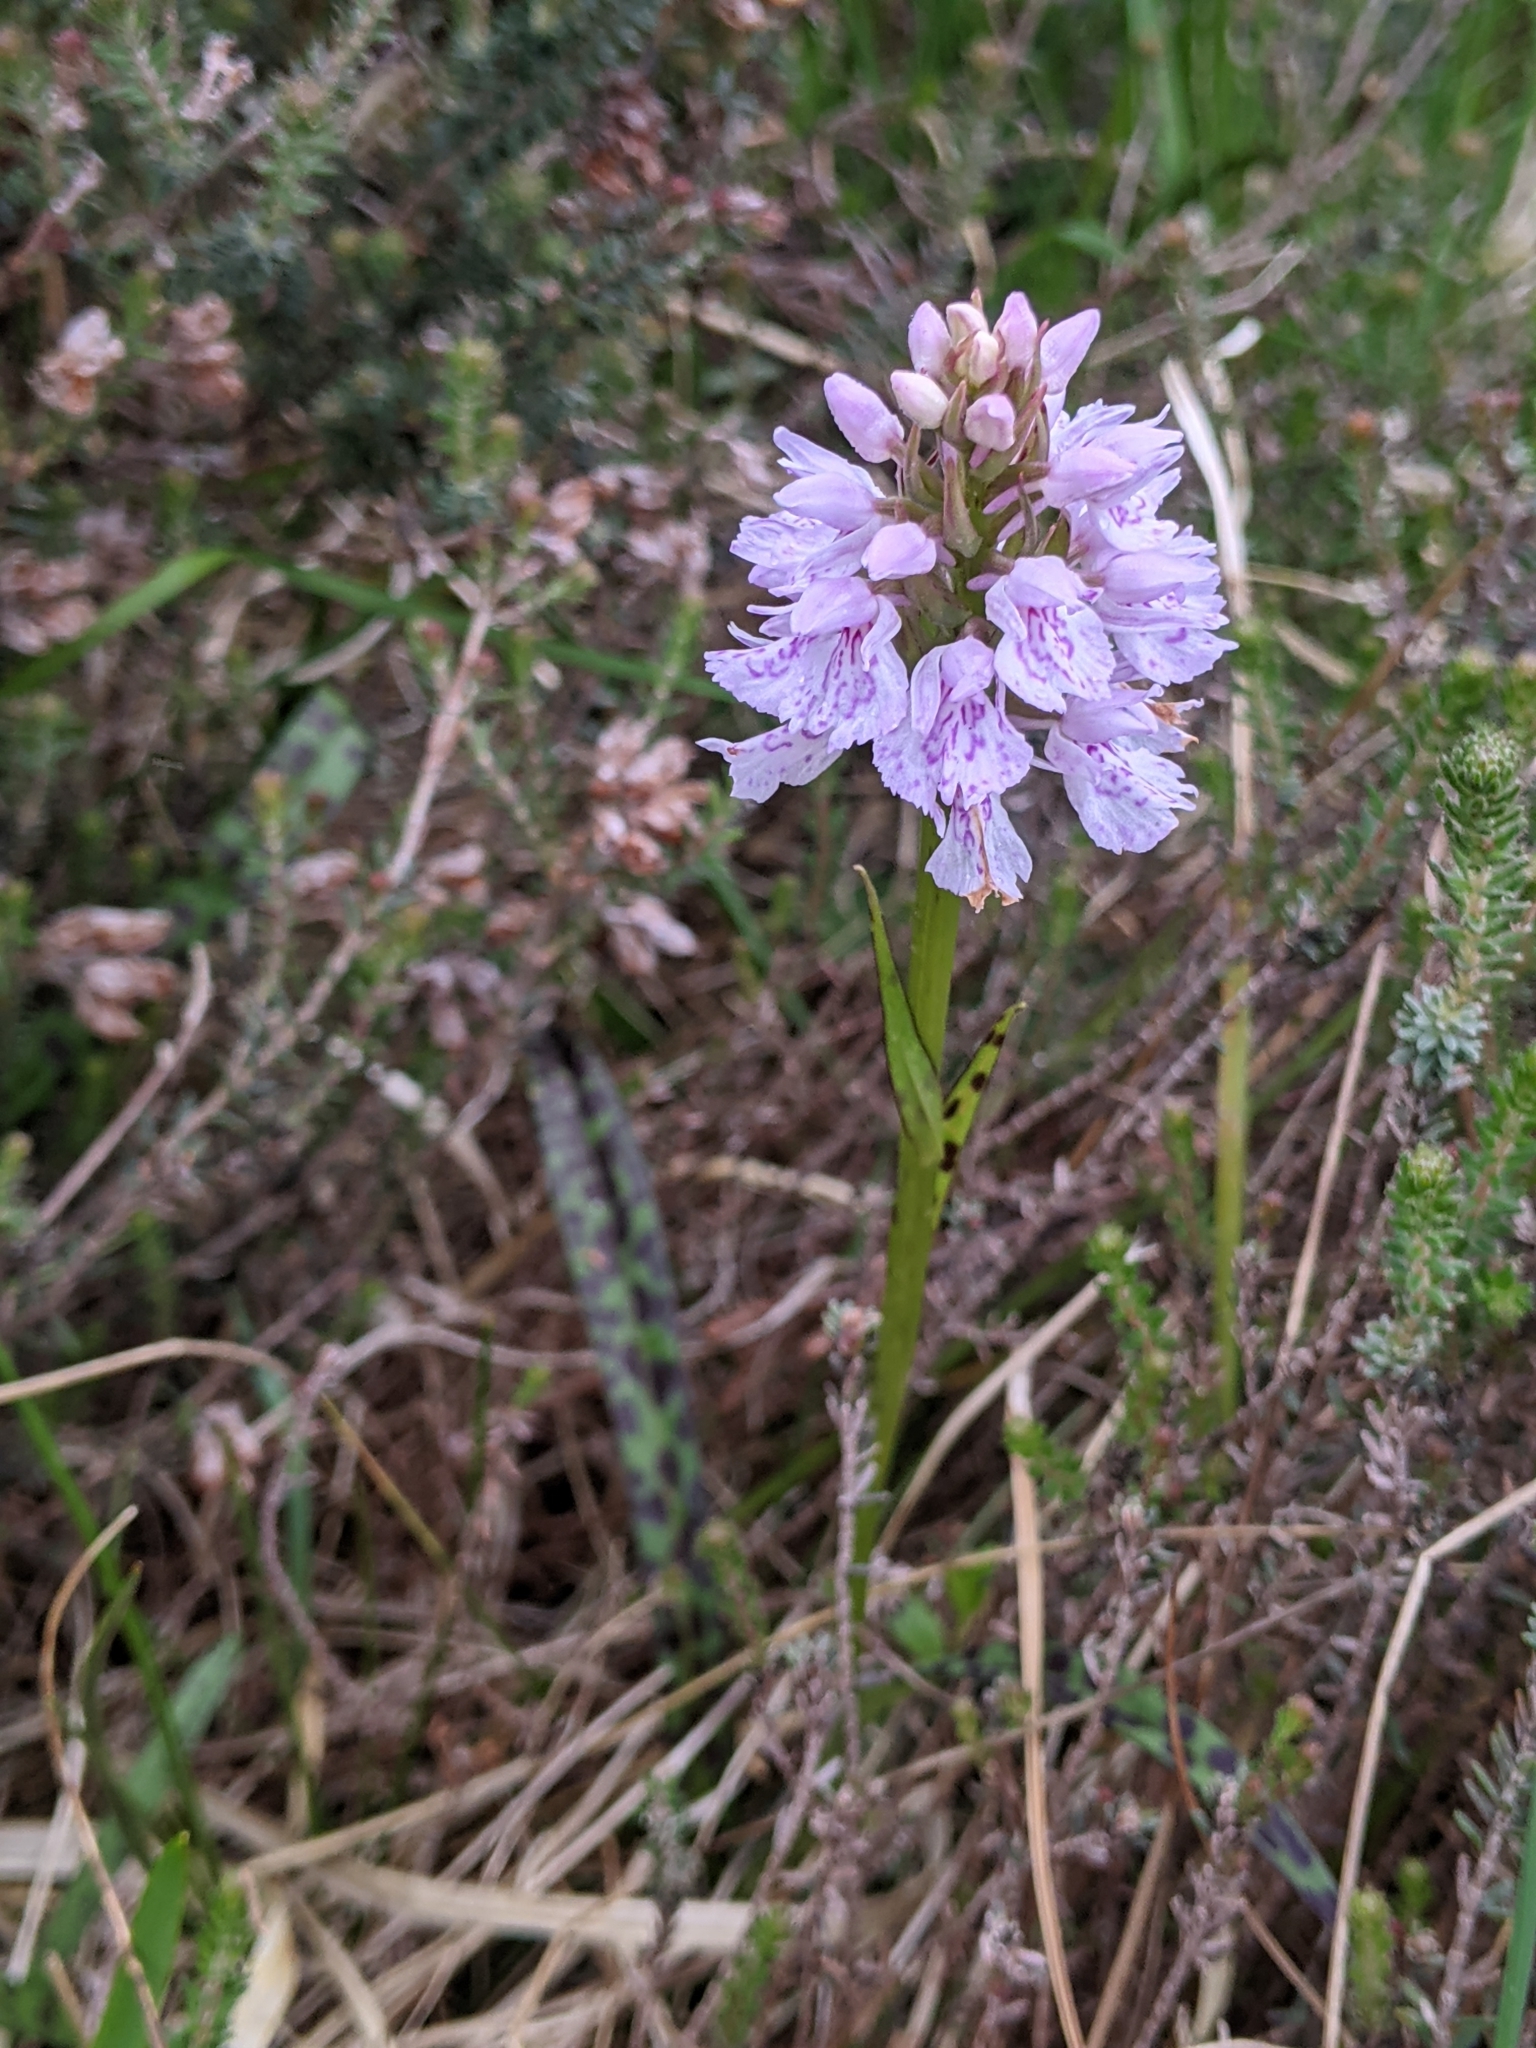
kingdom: Plantae
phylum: Tracheophyta
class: Liliopsida
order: Asparagales
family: Orchidaceae
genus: Dactylorhiza
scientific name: Dactylorhiza maculata
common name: Heath spotted-orchid
